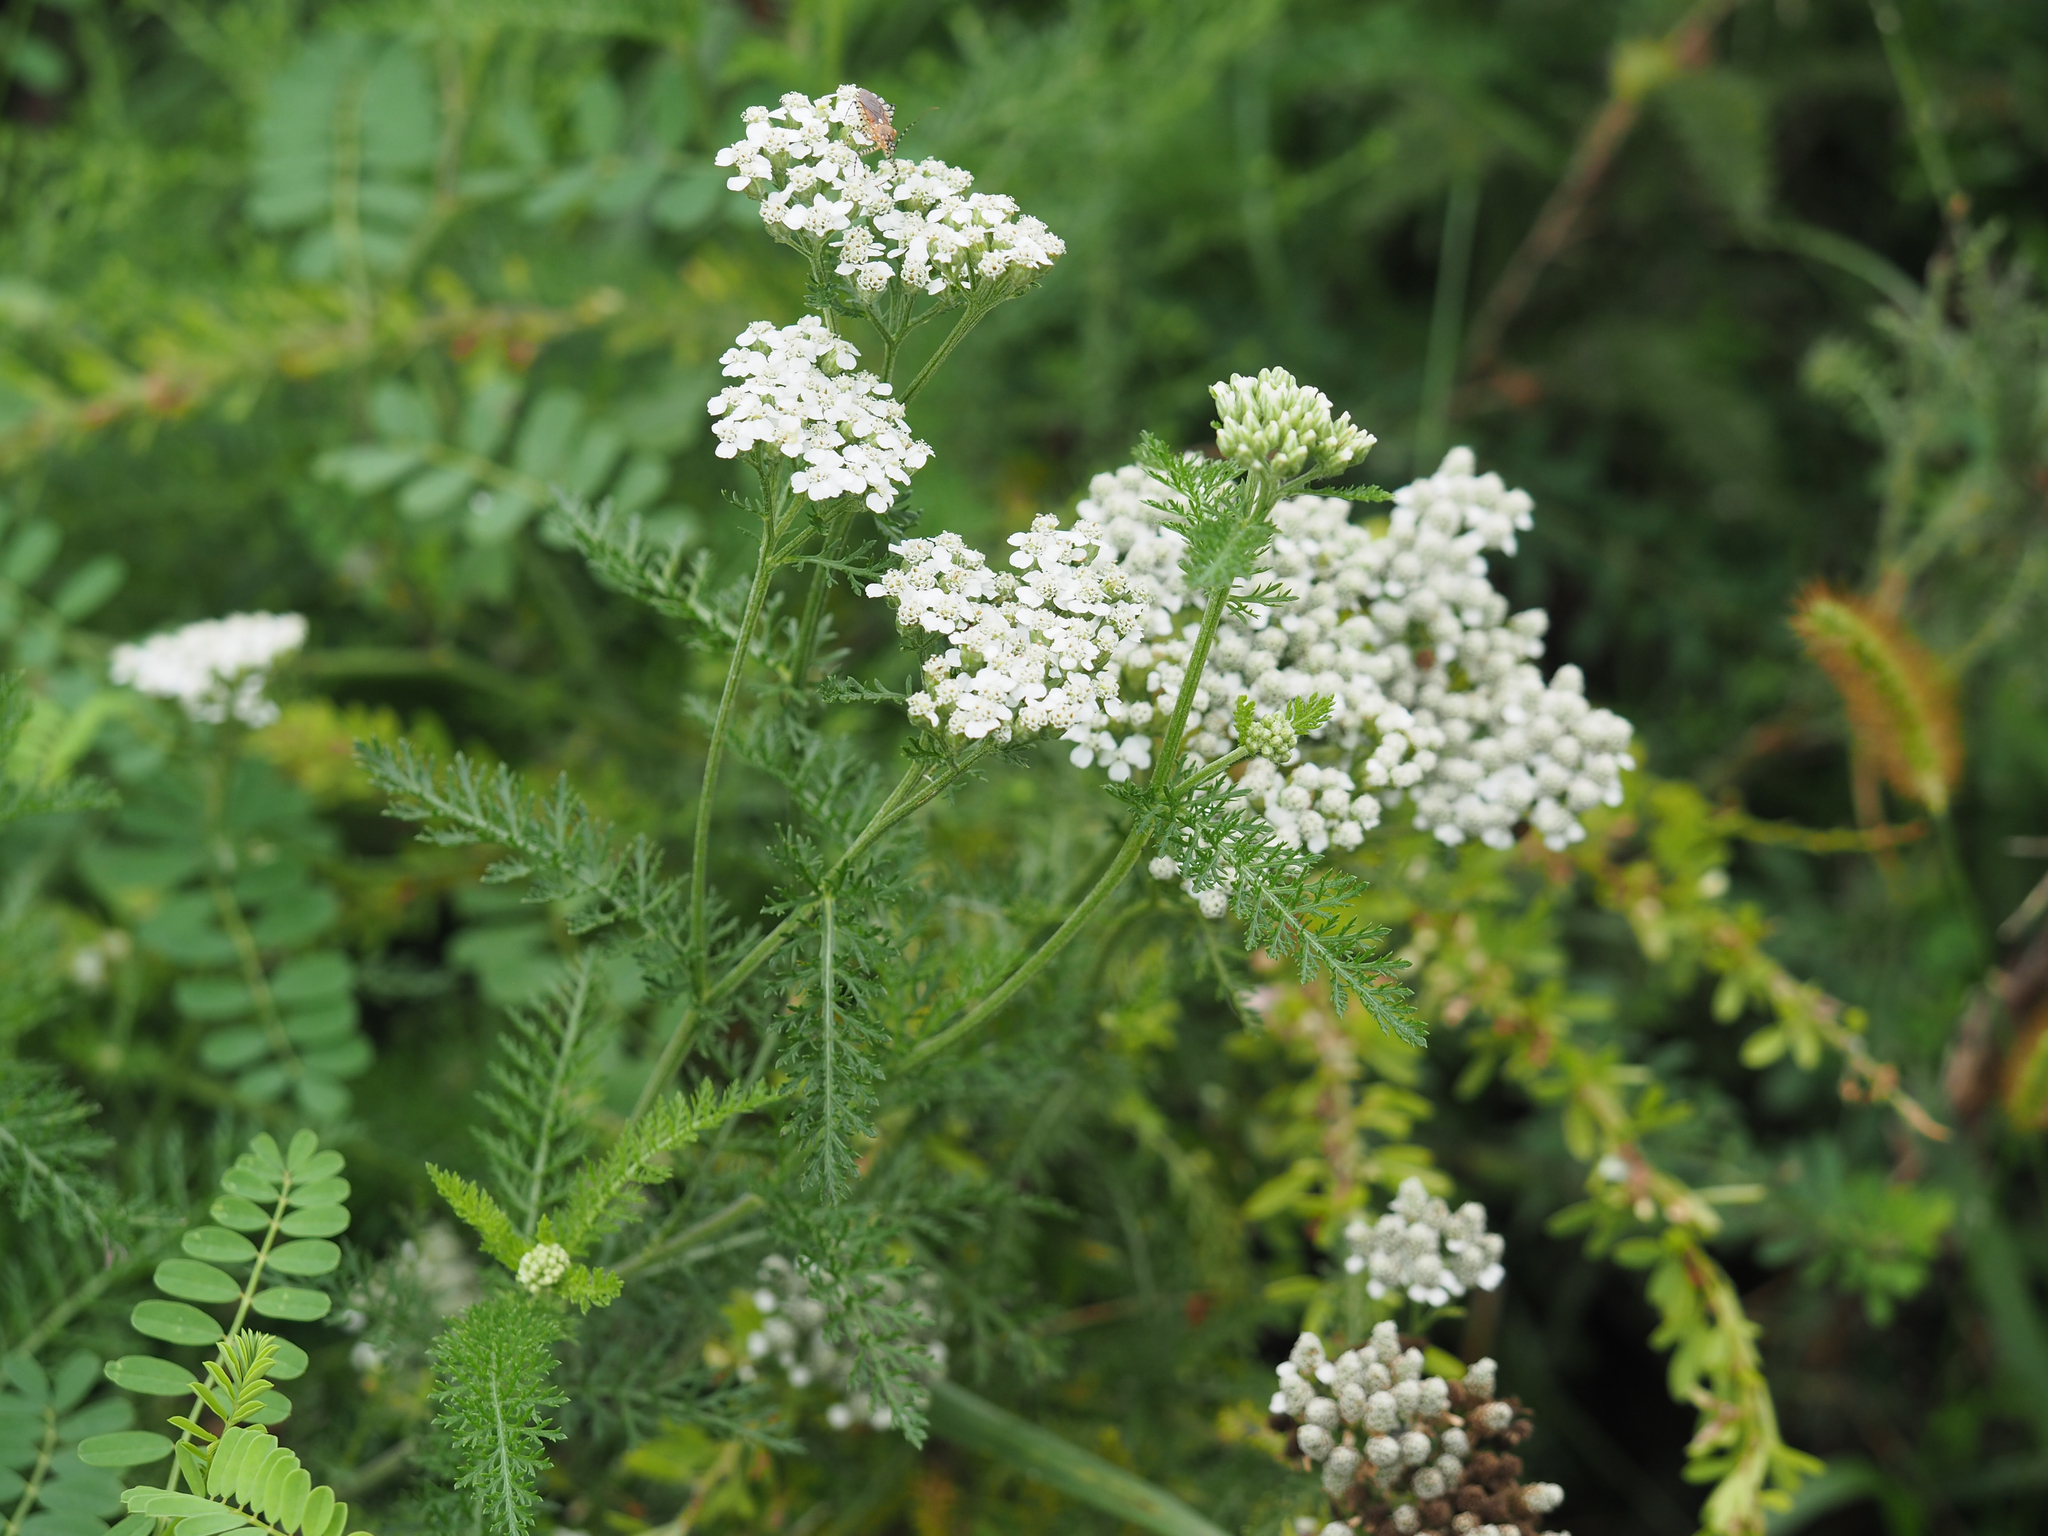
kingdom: Plantae
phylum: Tracheophyta
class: Magnoliopsida
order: Asterales
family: Asteraceae
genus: Achillea
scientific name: Achillea millefolium
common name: Yarrow
